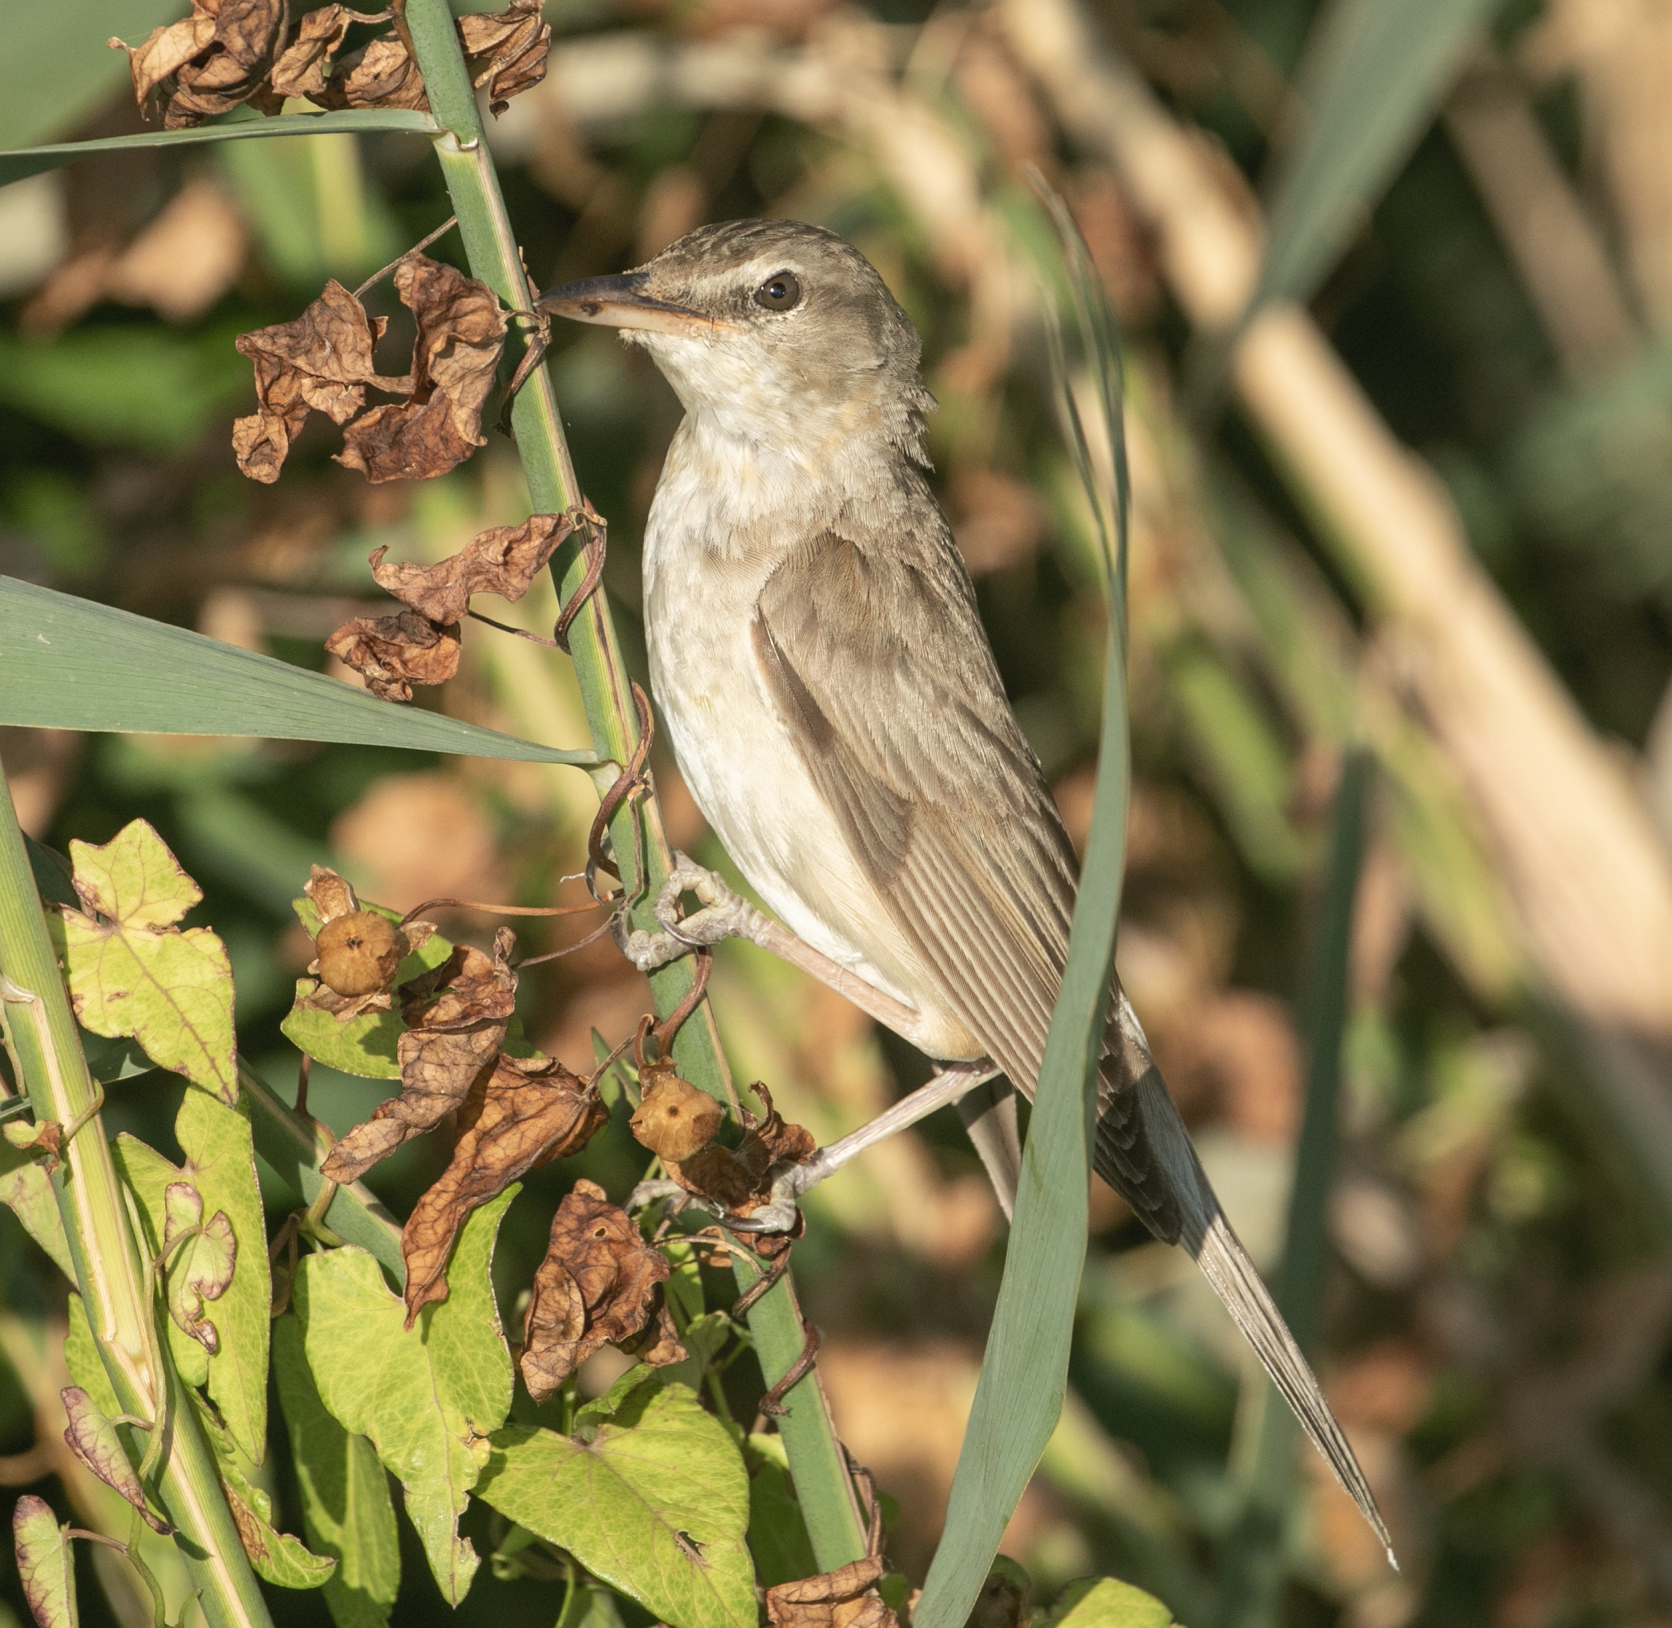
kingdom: Animalia
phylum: Chordata
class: Aves
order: Passeriformes
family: Acrocephalidae
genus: Acrocephalus
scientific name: Acrocephalus arundinaceus
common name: Great reed warbler
